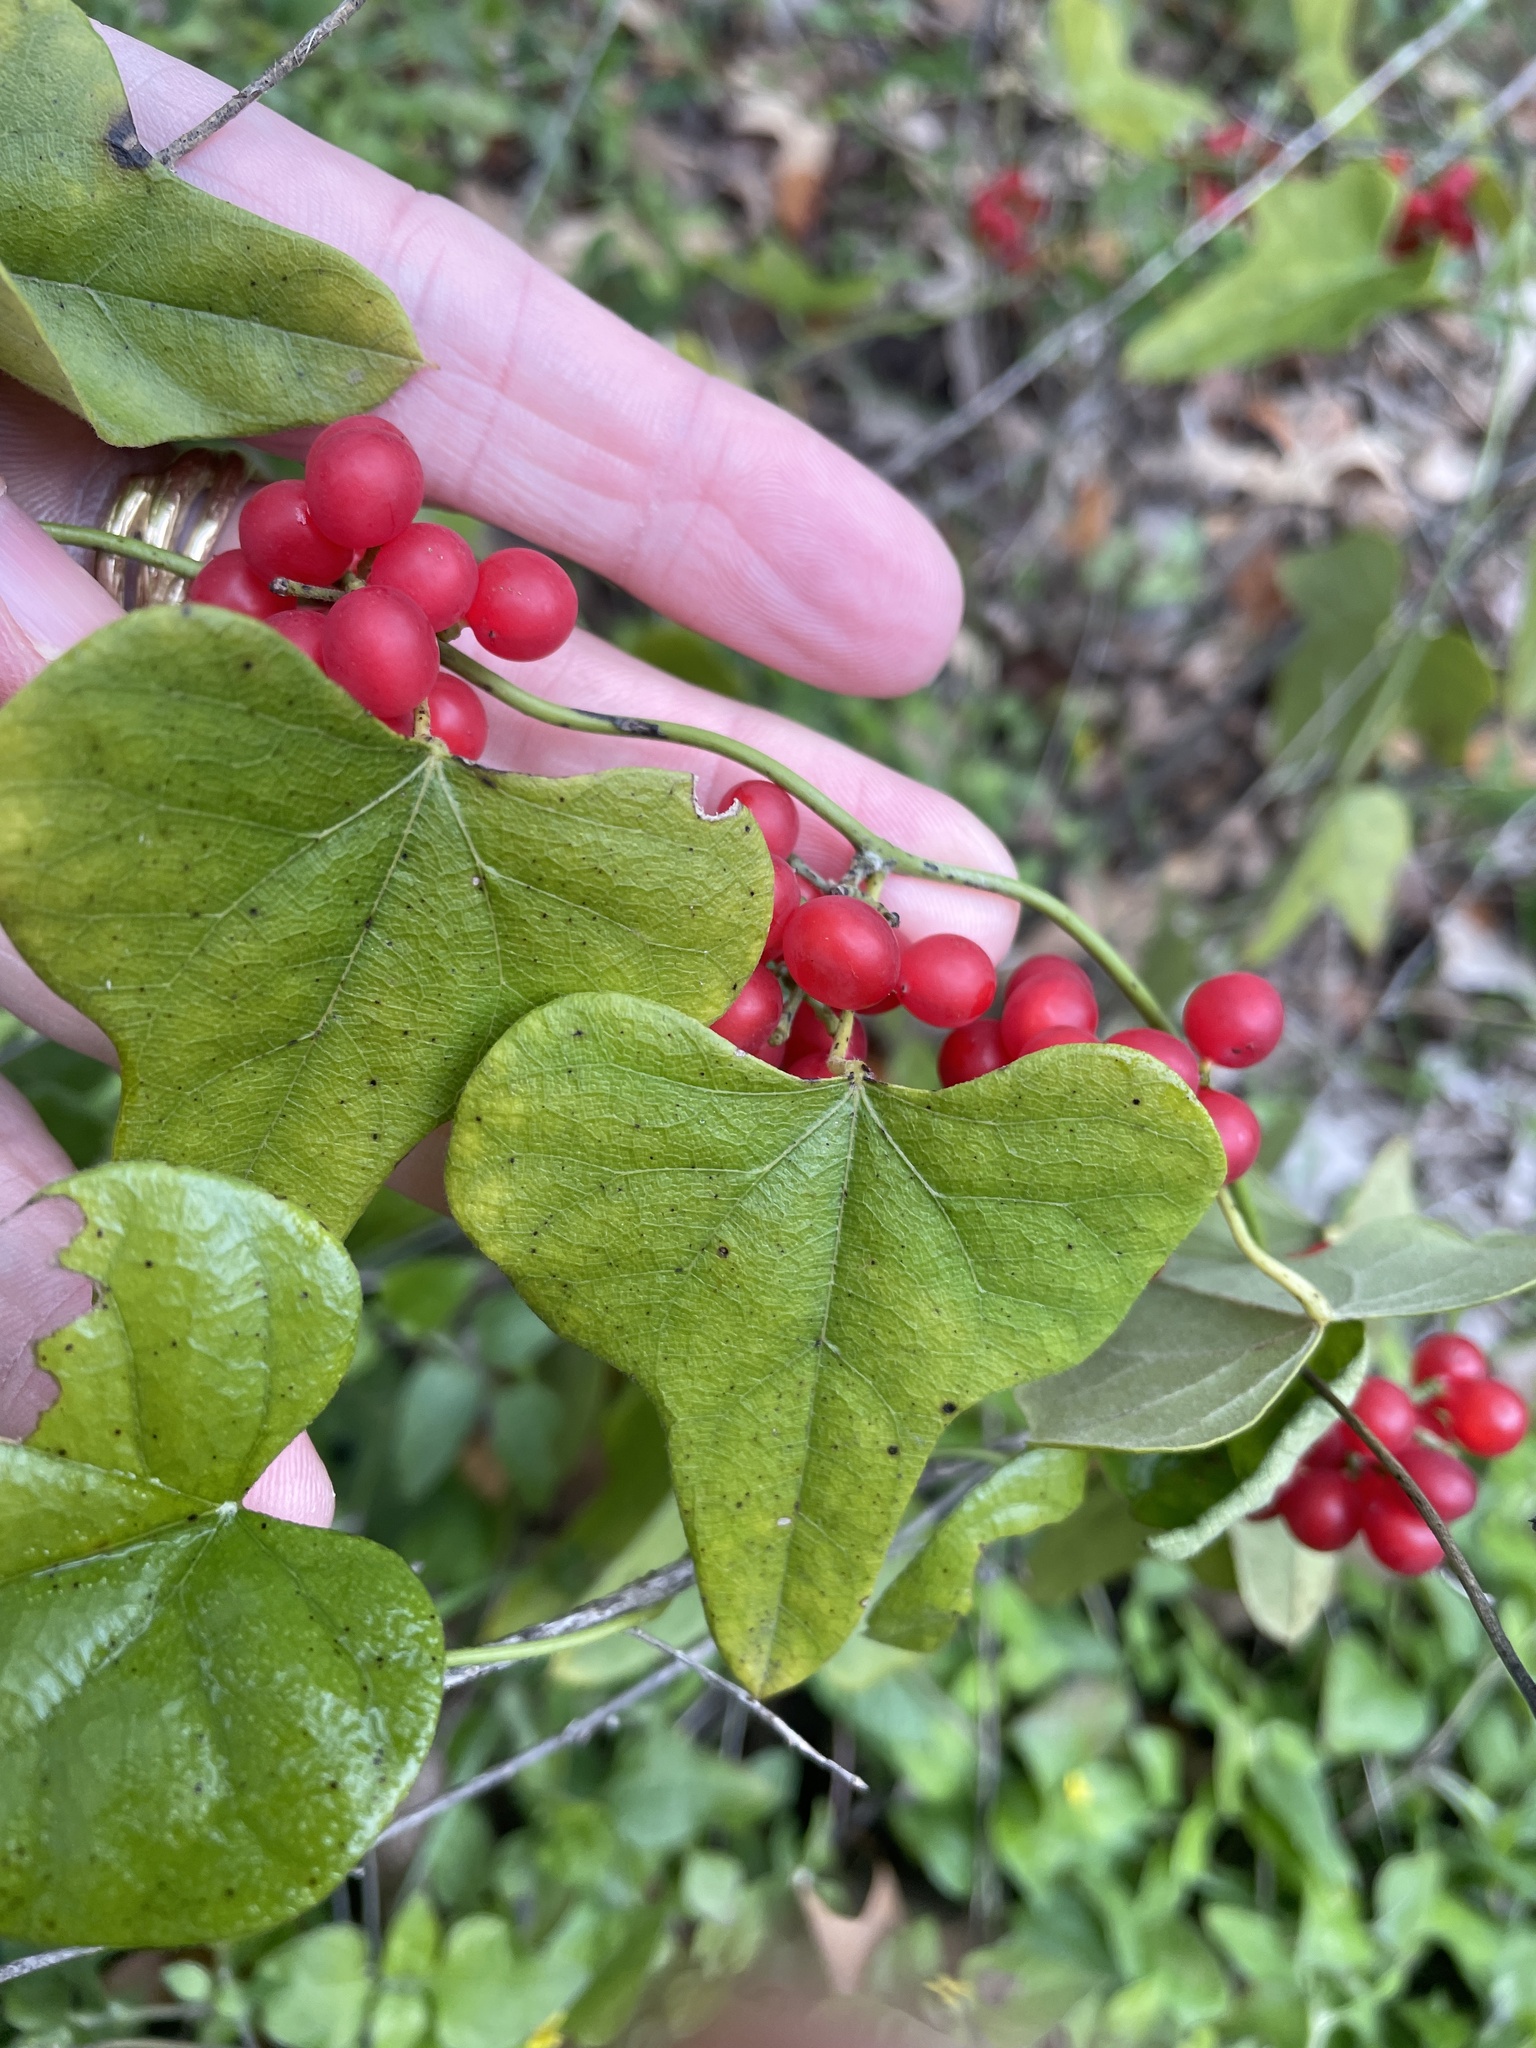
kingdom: Plantae
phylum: Tracheophyta
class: Magnoliopsida
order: Ranunculales
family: Menispermaceae
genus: Cocculus
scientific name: Cocculus carolinus
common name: Carolina moonseed
